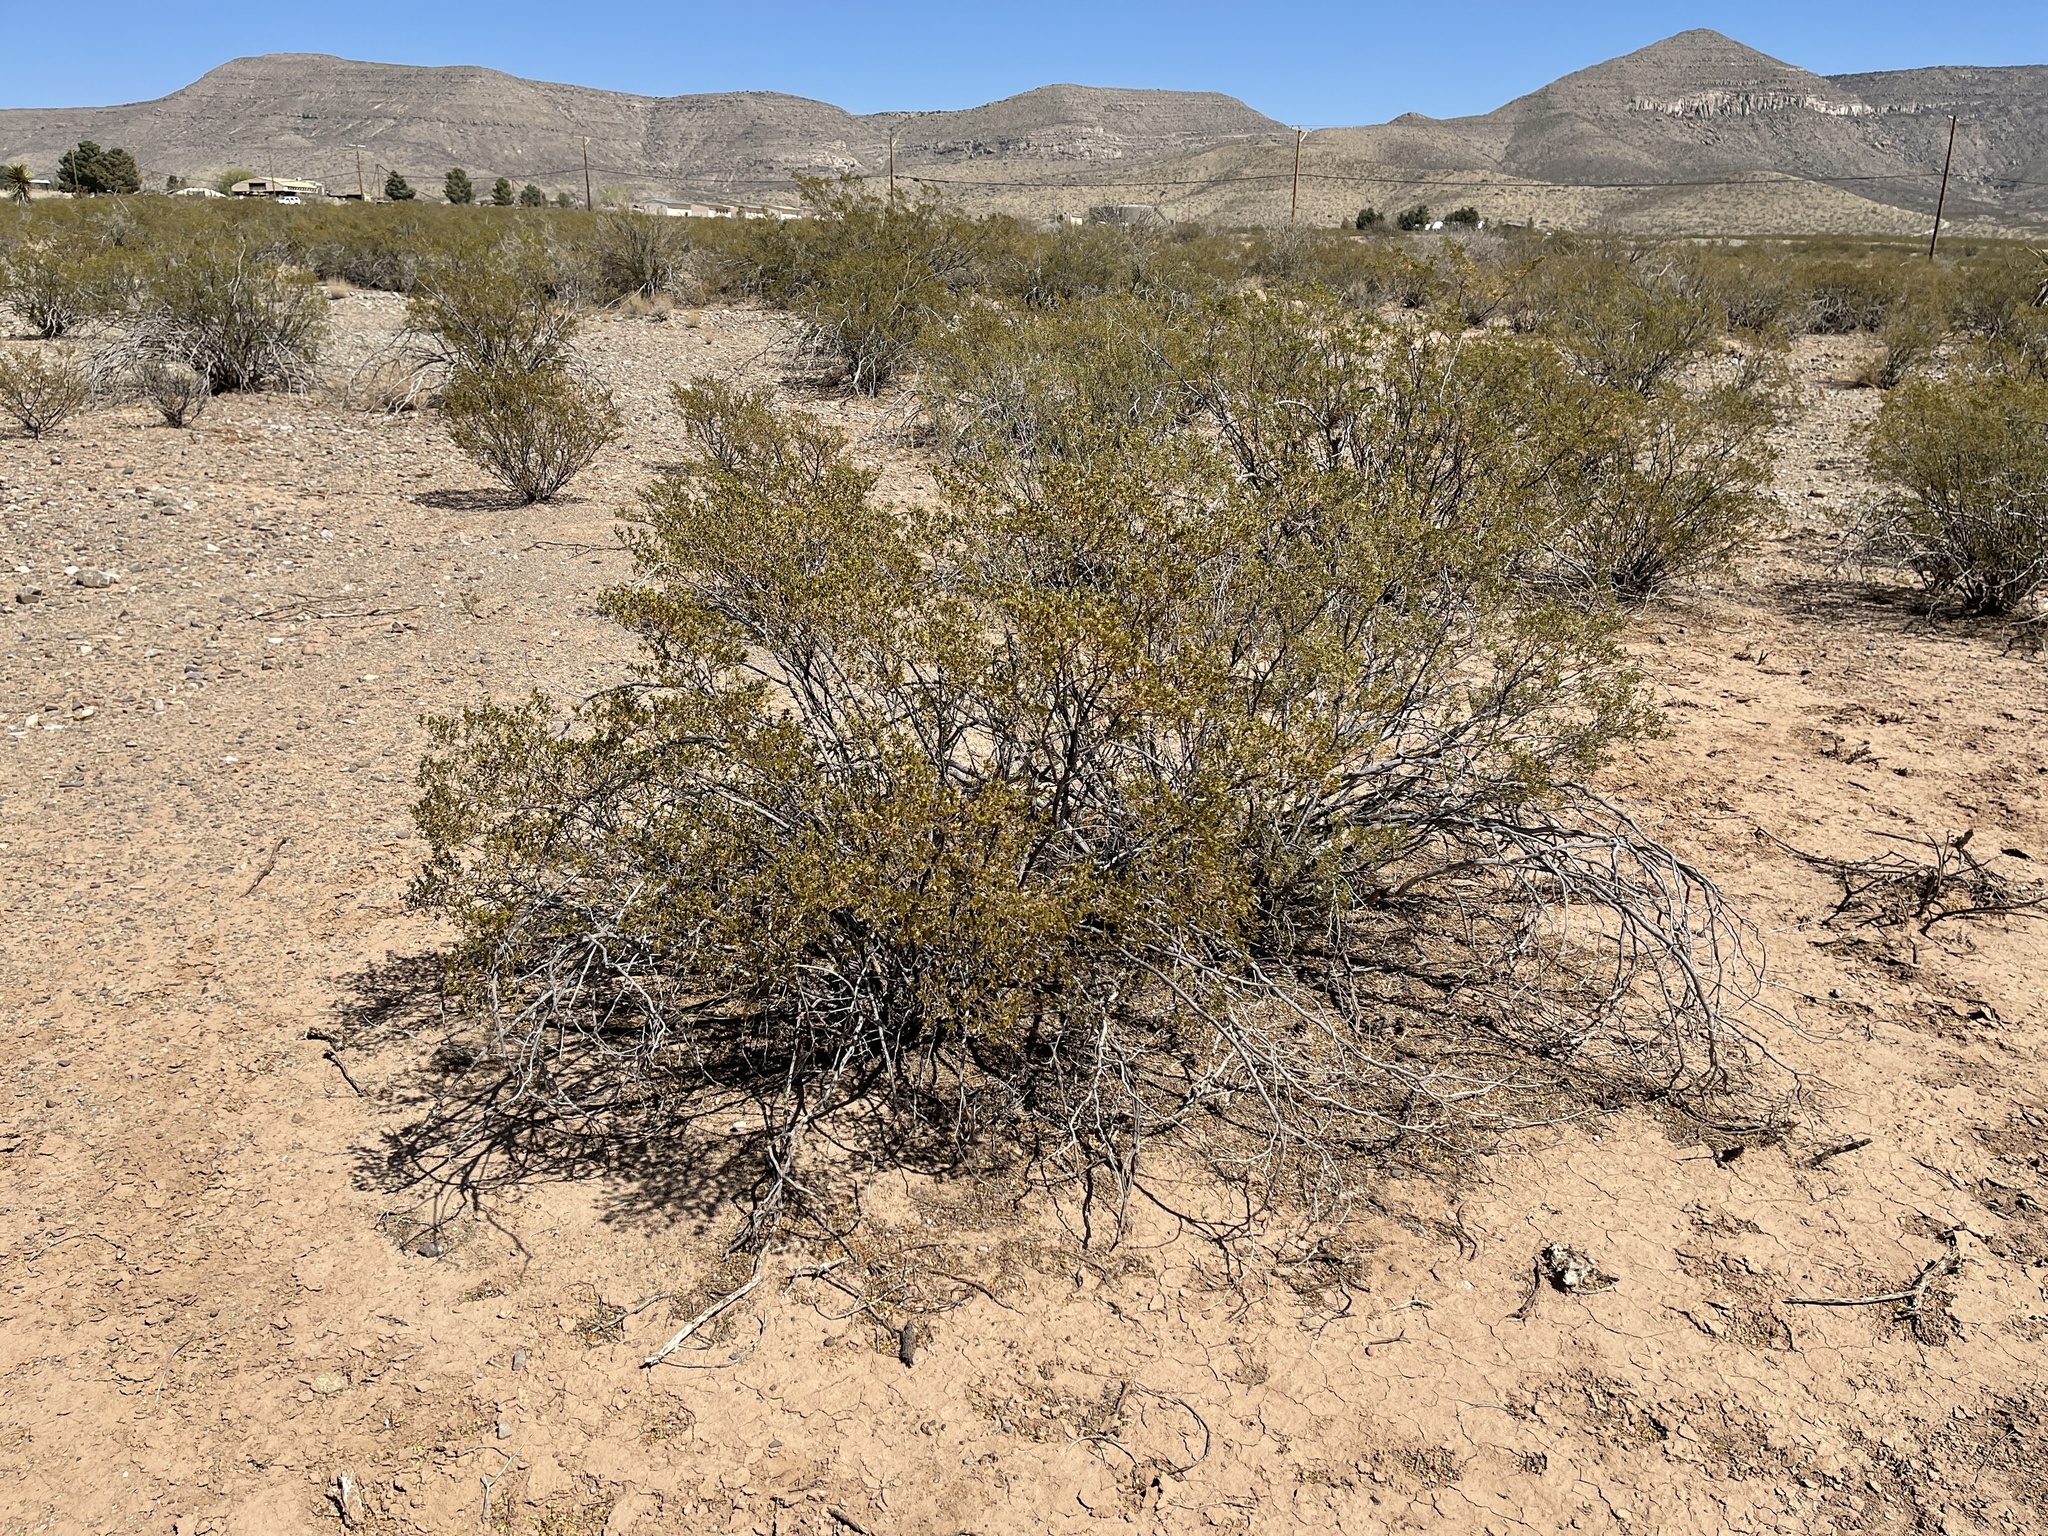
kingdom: Plantae
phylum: Tracheophyta
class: Magnoliopsida
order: Zygophyllales
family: Zygophyllaceae
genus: Larrea
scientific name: Larrea tridentata
